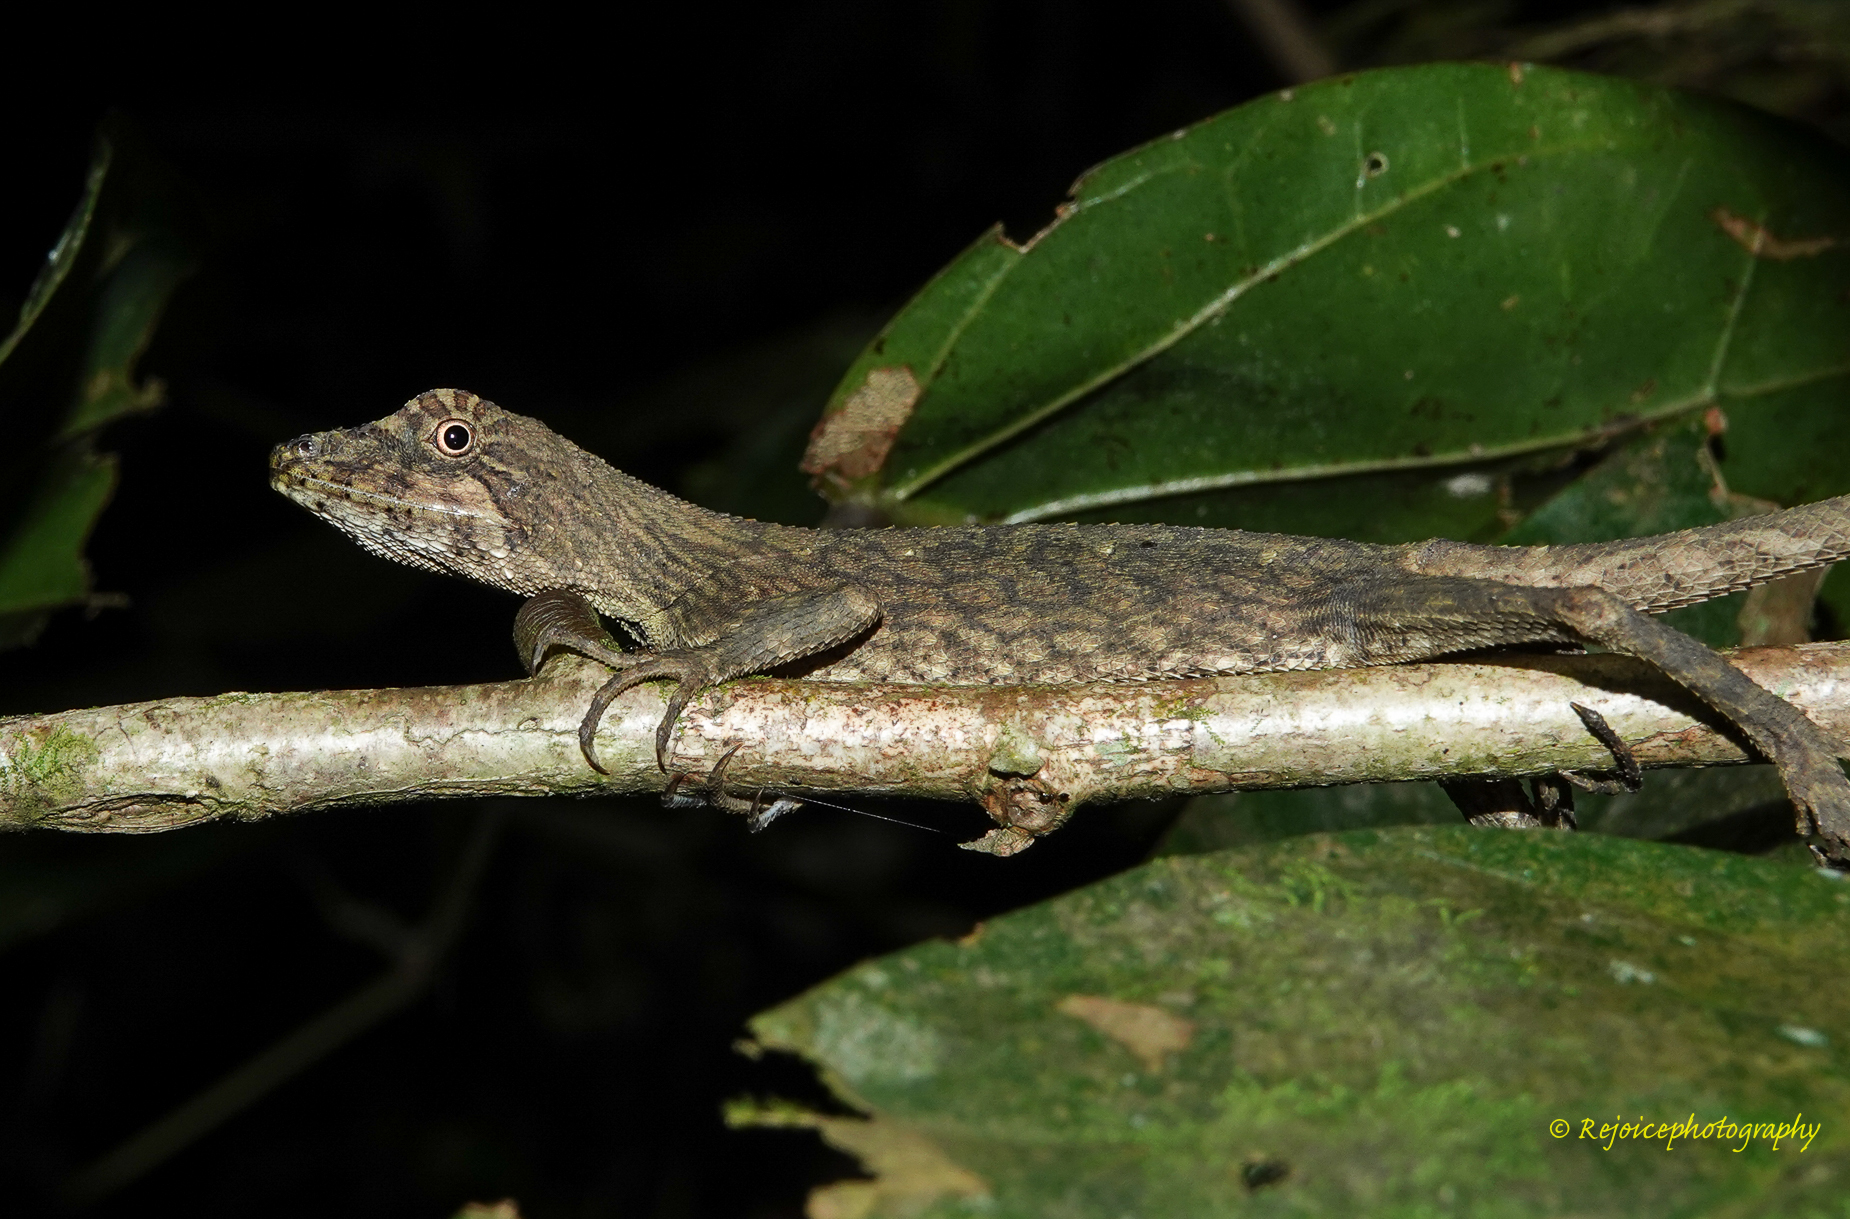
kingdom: Animalia
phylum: Chordata
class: Squamata
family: Agamidae
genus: Ptyctolaemus
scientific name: Ptyctolaemus gularis
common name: Green fan-throated lizard
